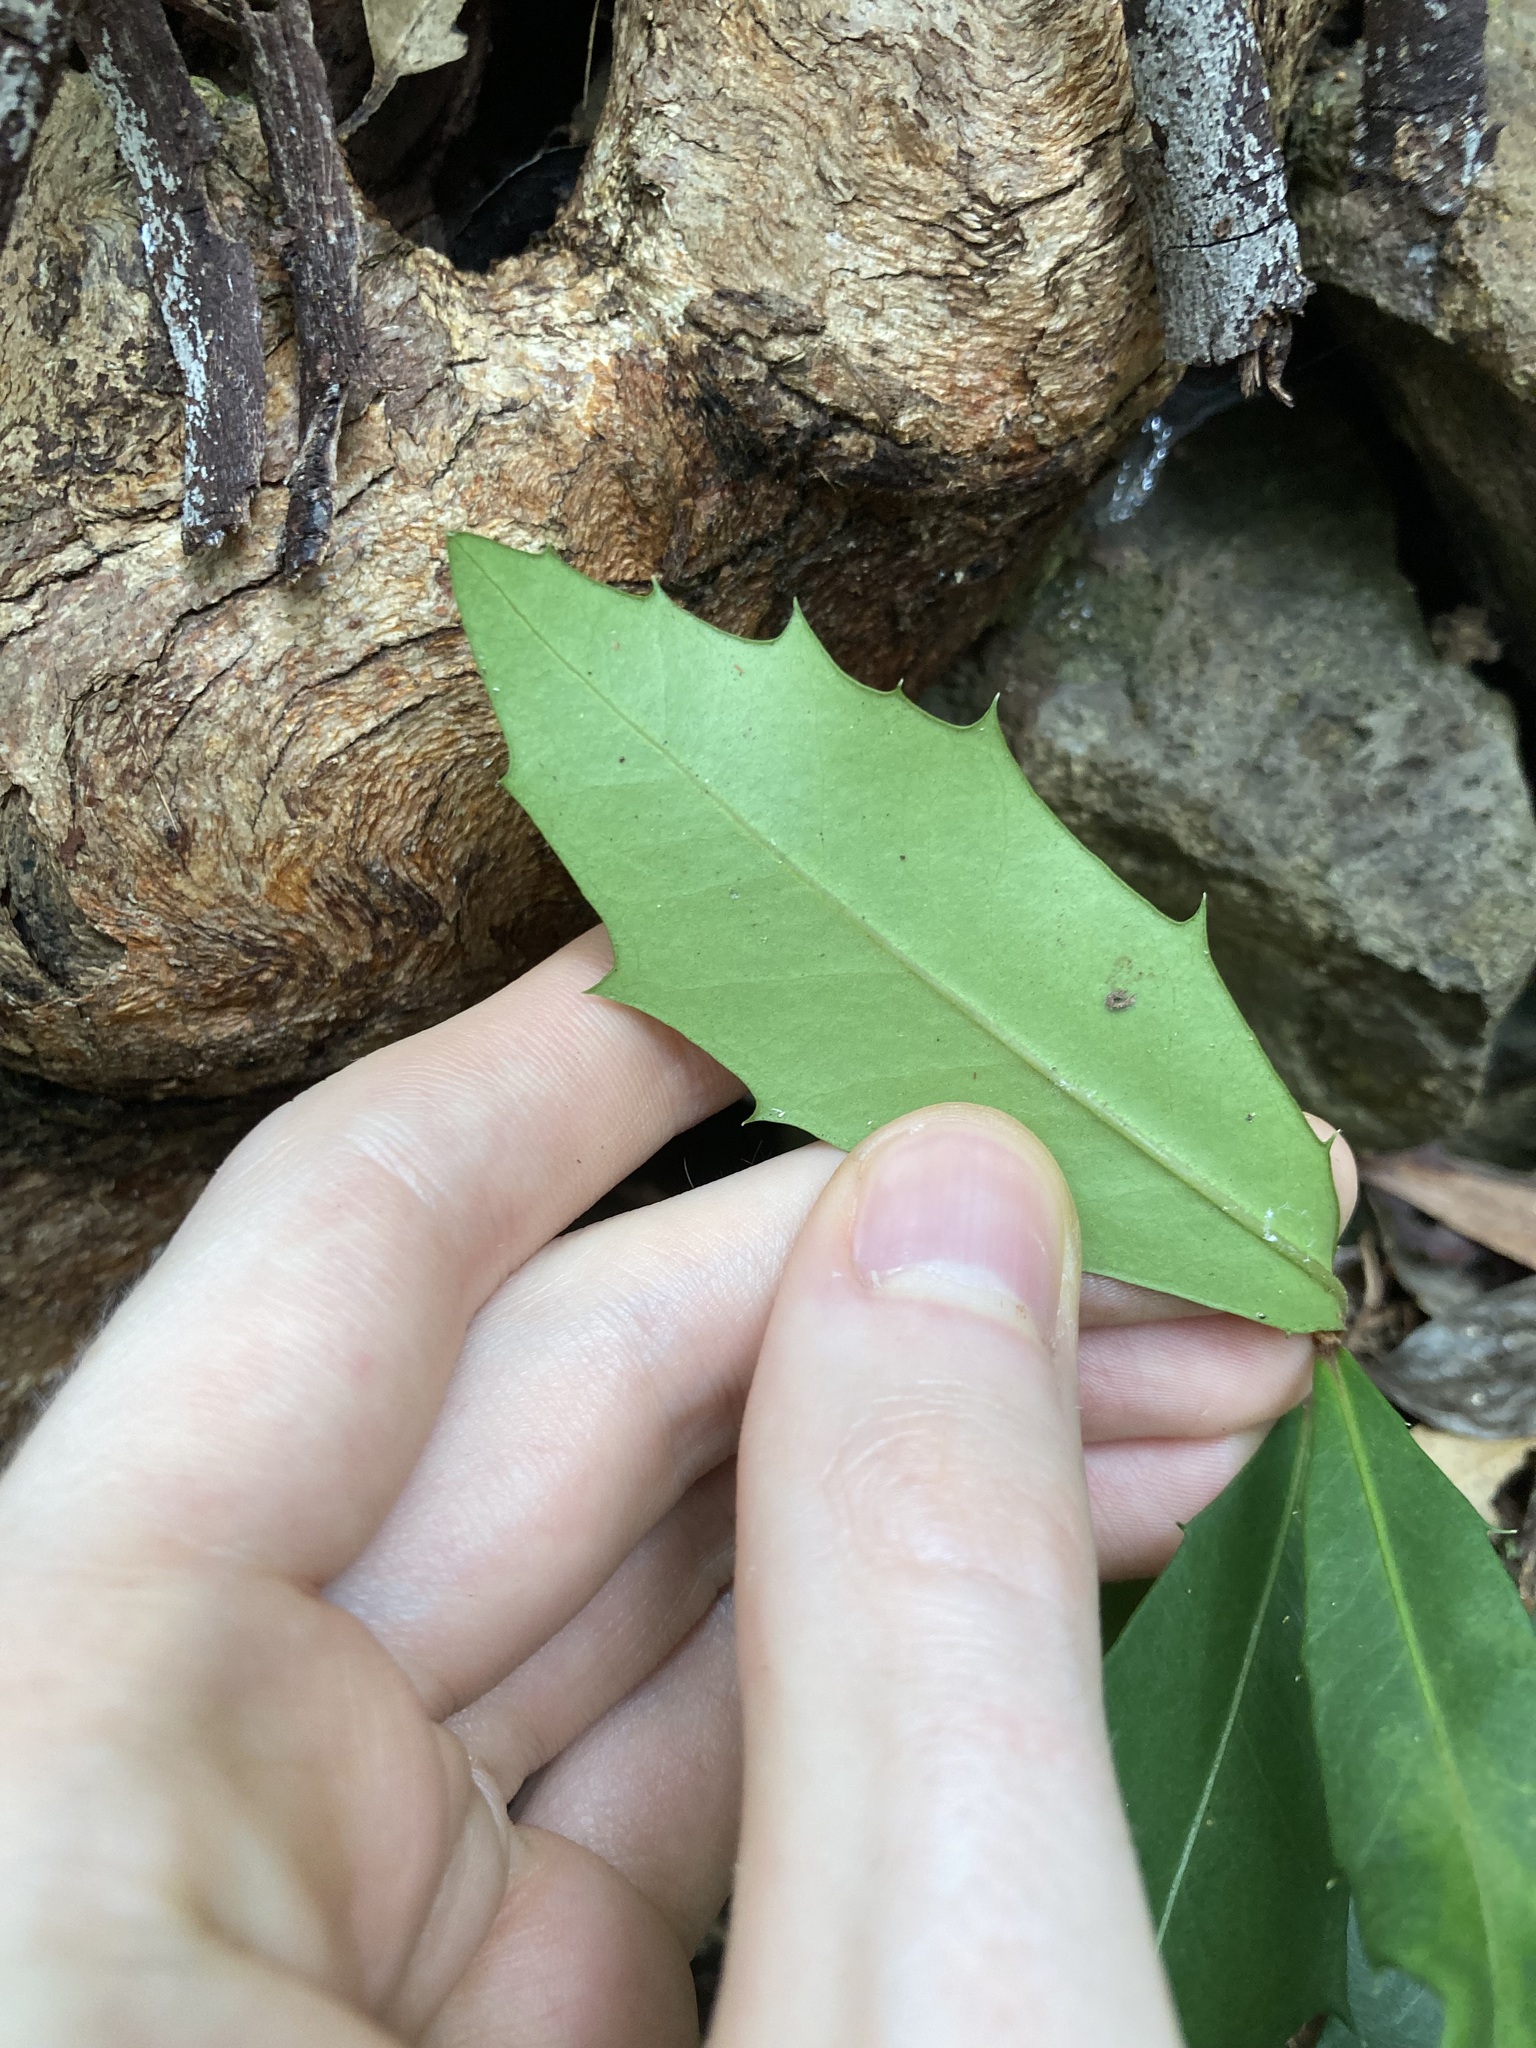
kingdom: Plantae
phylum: Tracheophyta
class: Magnoliopsida
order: Ericales
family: Primulaceae
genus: Myrsine
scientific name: Myrsine variabilis
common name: Brush muttonwood
